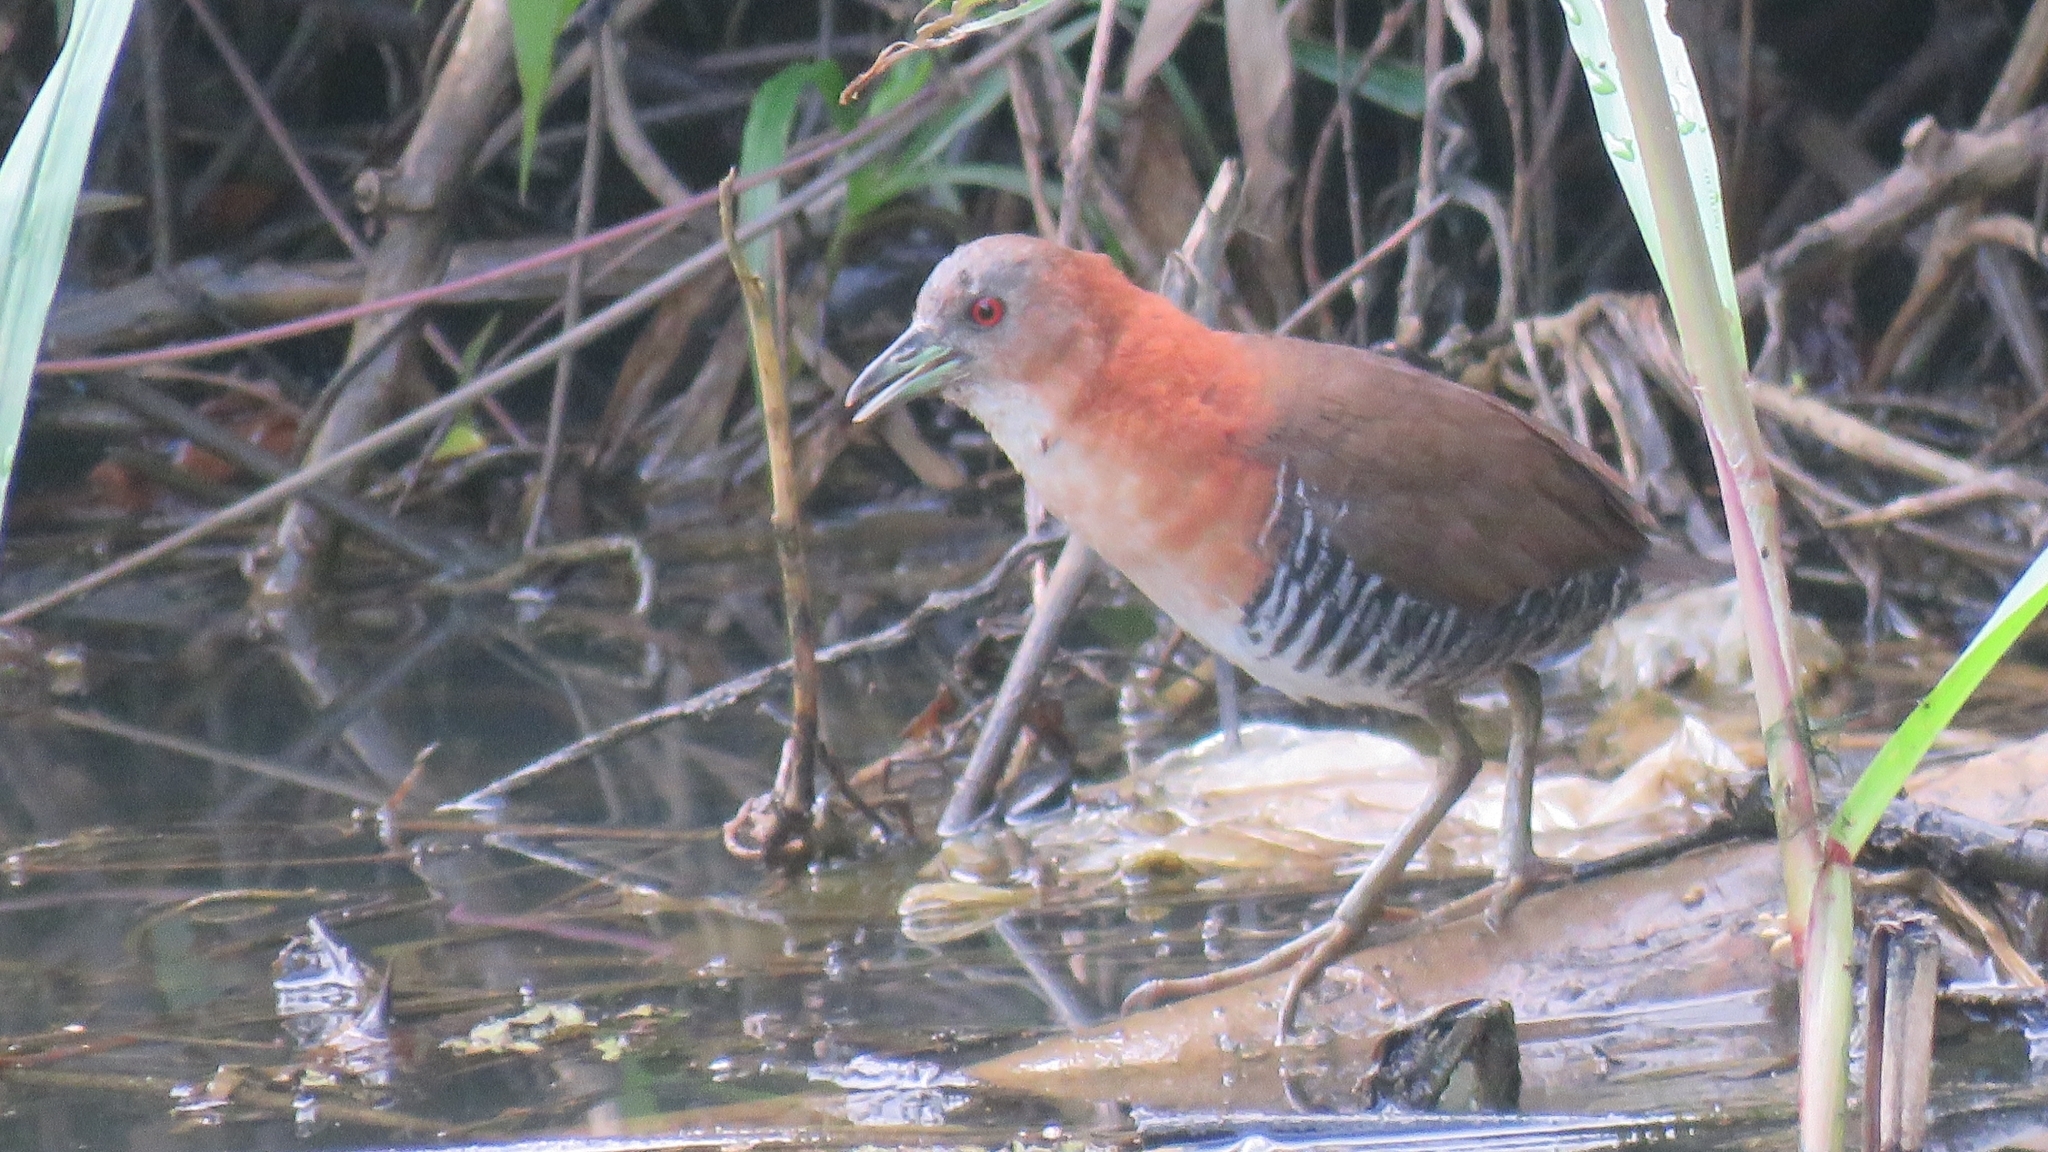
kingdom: Animalia
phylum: Chordata
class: Aves
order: Gruiformes
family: Rallidae
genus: Laterallus
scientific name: Laterallus albigularis
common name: White-throated crake
